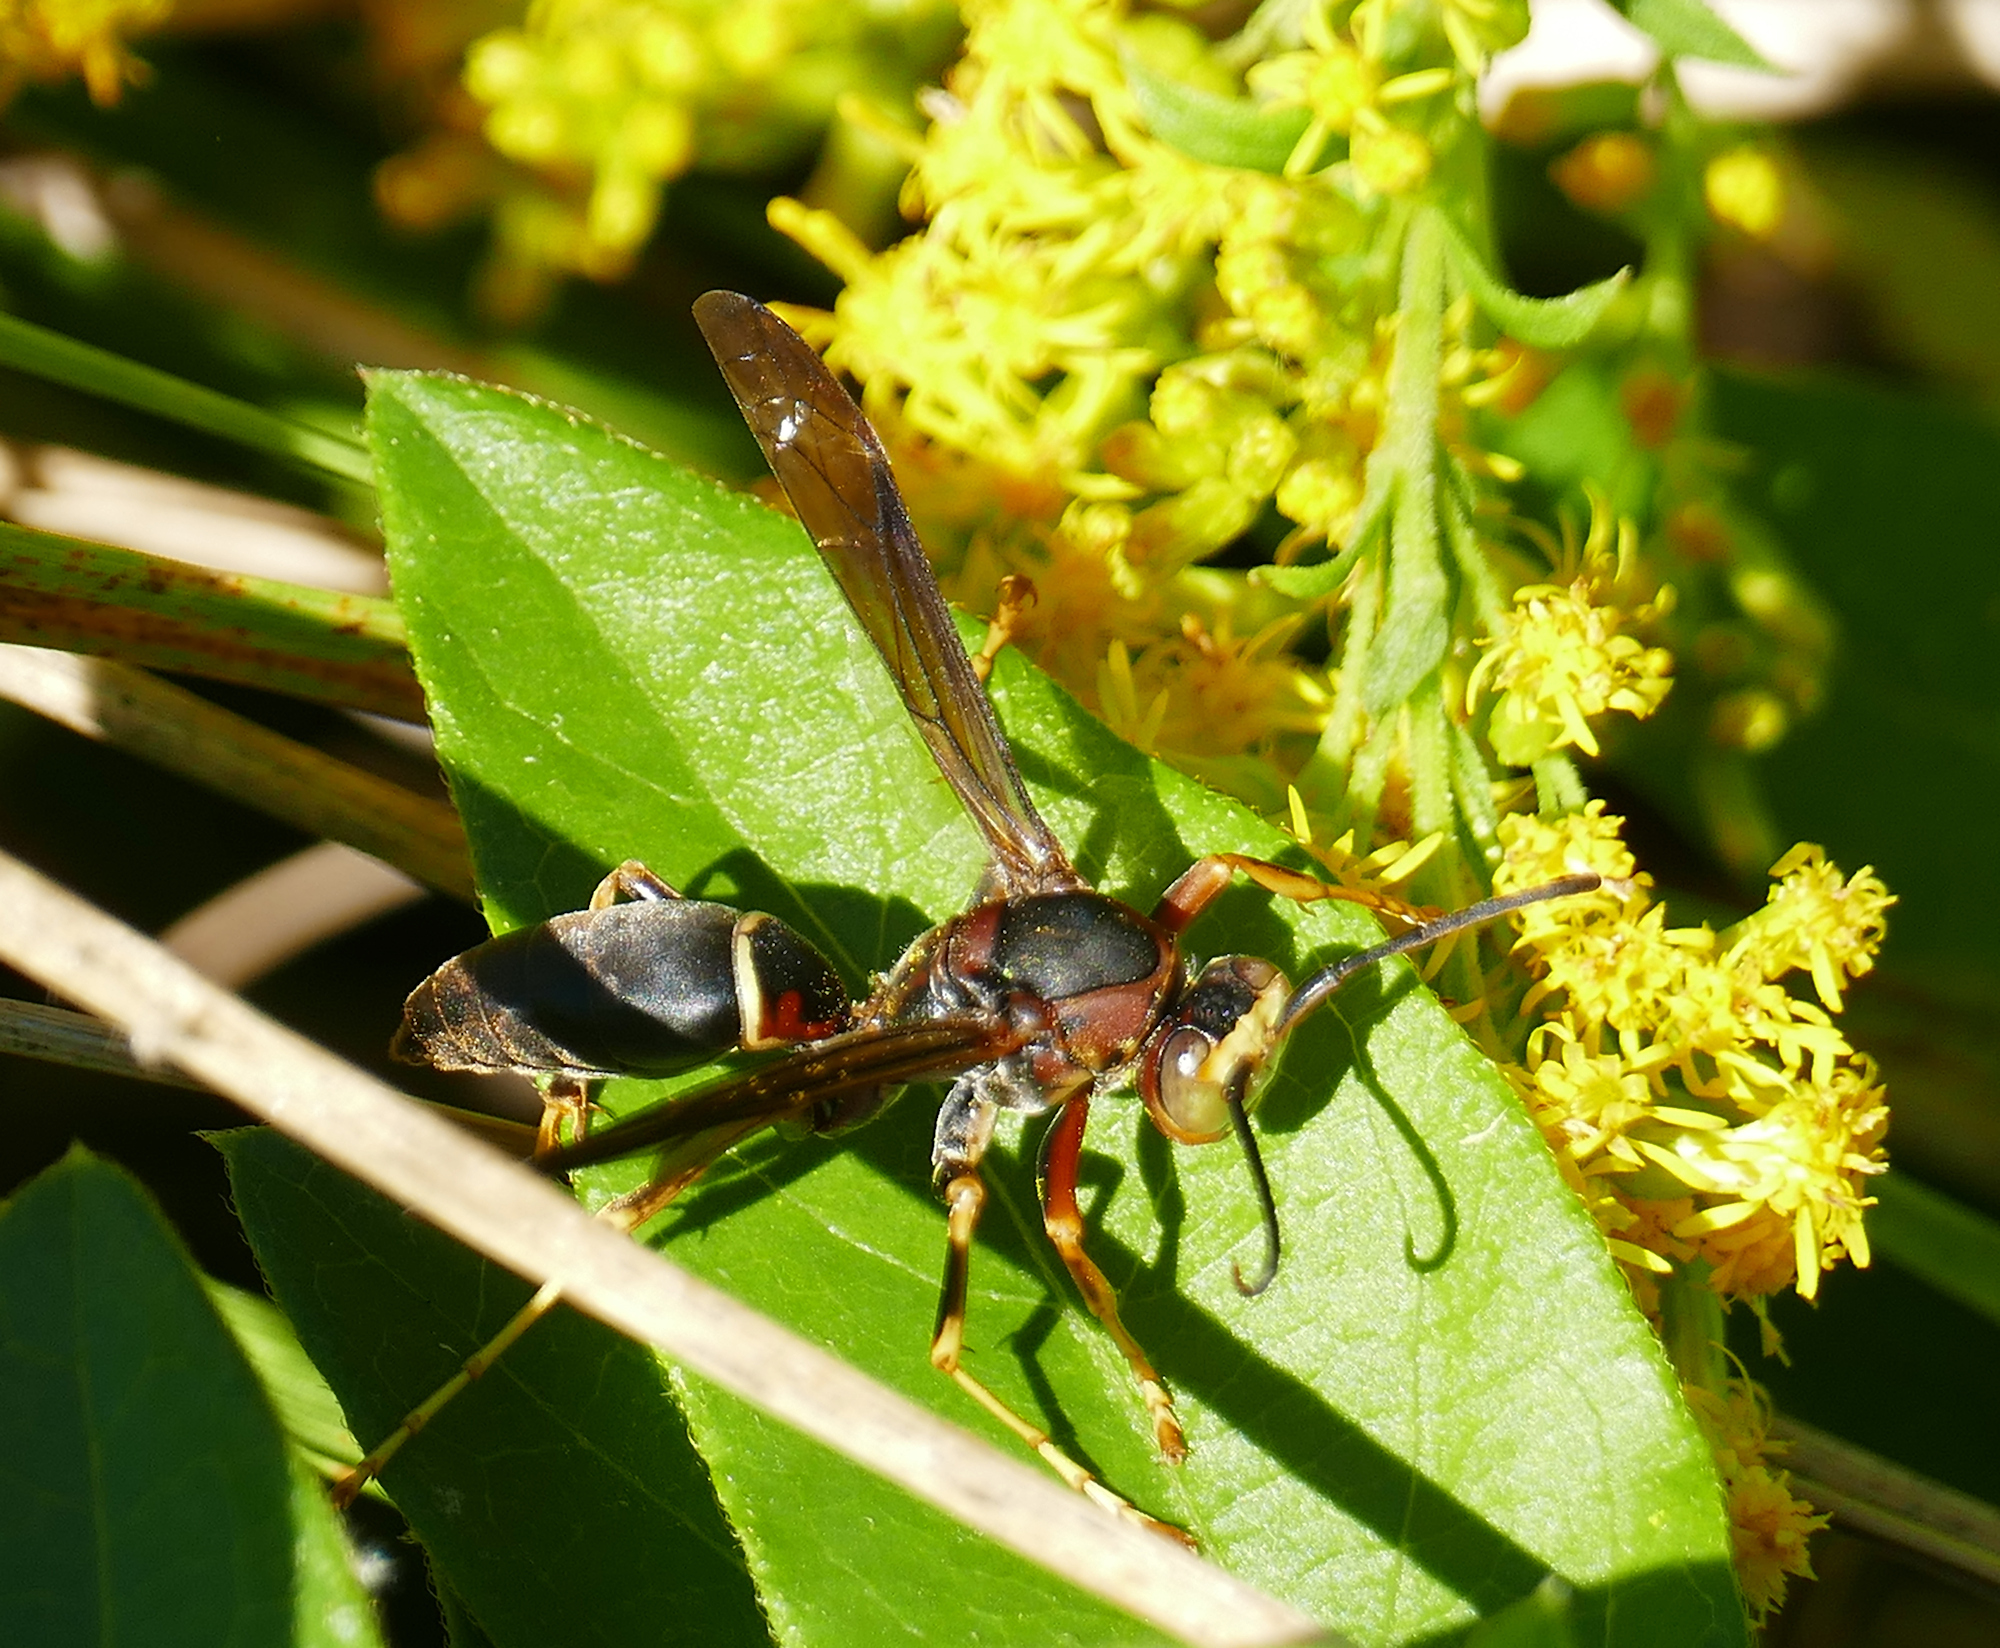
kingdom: Animalia
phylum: Arthropoda
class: Insecta
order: Hymenoptera
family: Eumenidae
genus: Polistes
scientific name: Polistes fuscatus
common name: Dark paper wasp
